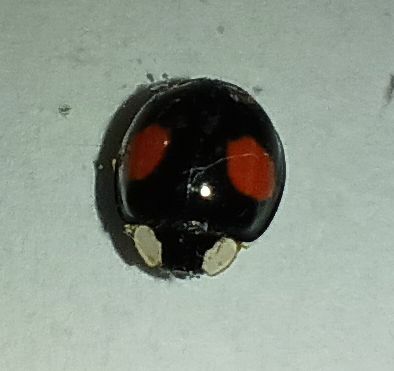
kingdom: Animalia
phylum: Arthropoda
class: Insecta
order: Coleoptera
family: Coccinellidae
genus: Harmonia
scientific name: Harmonia axyridis
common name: Harlequin ladybird
